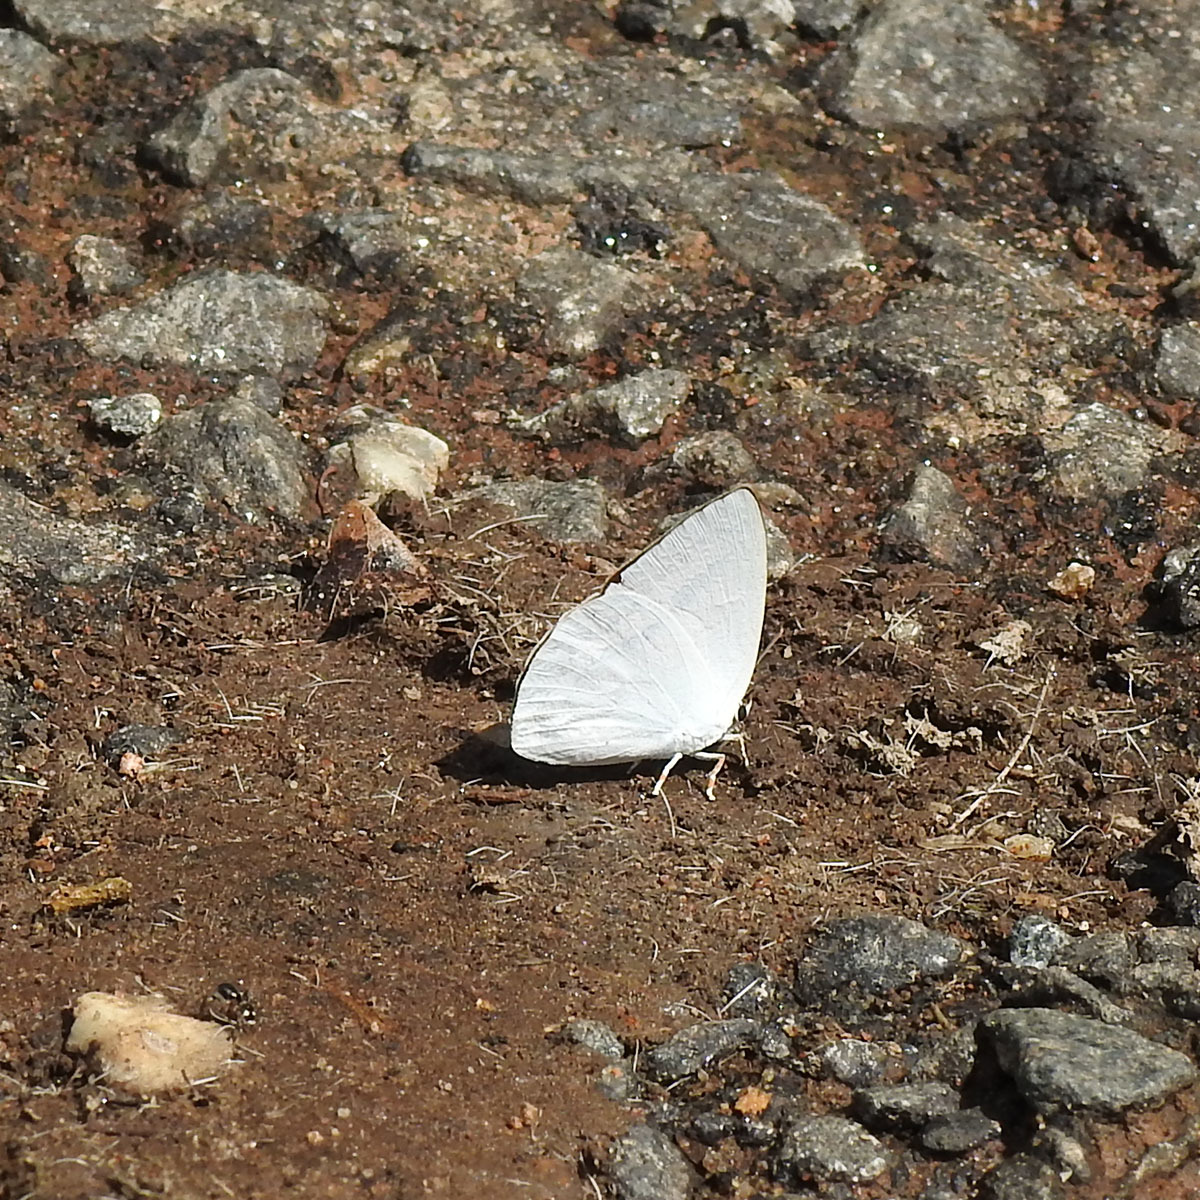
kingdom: Animalia
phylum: Arthropoda
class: Insecta
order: Lepidoptera
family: Lycaenidae
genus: Curetis
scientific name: Curetis thetis
